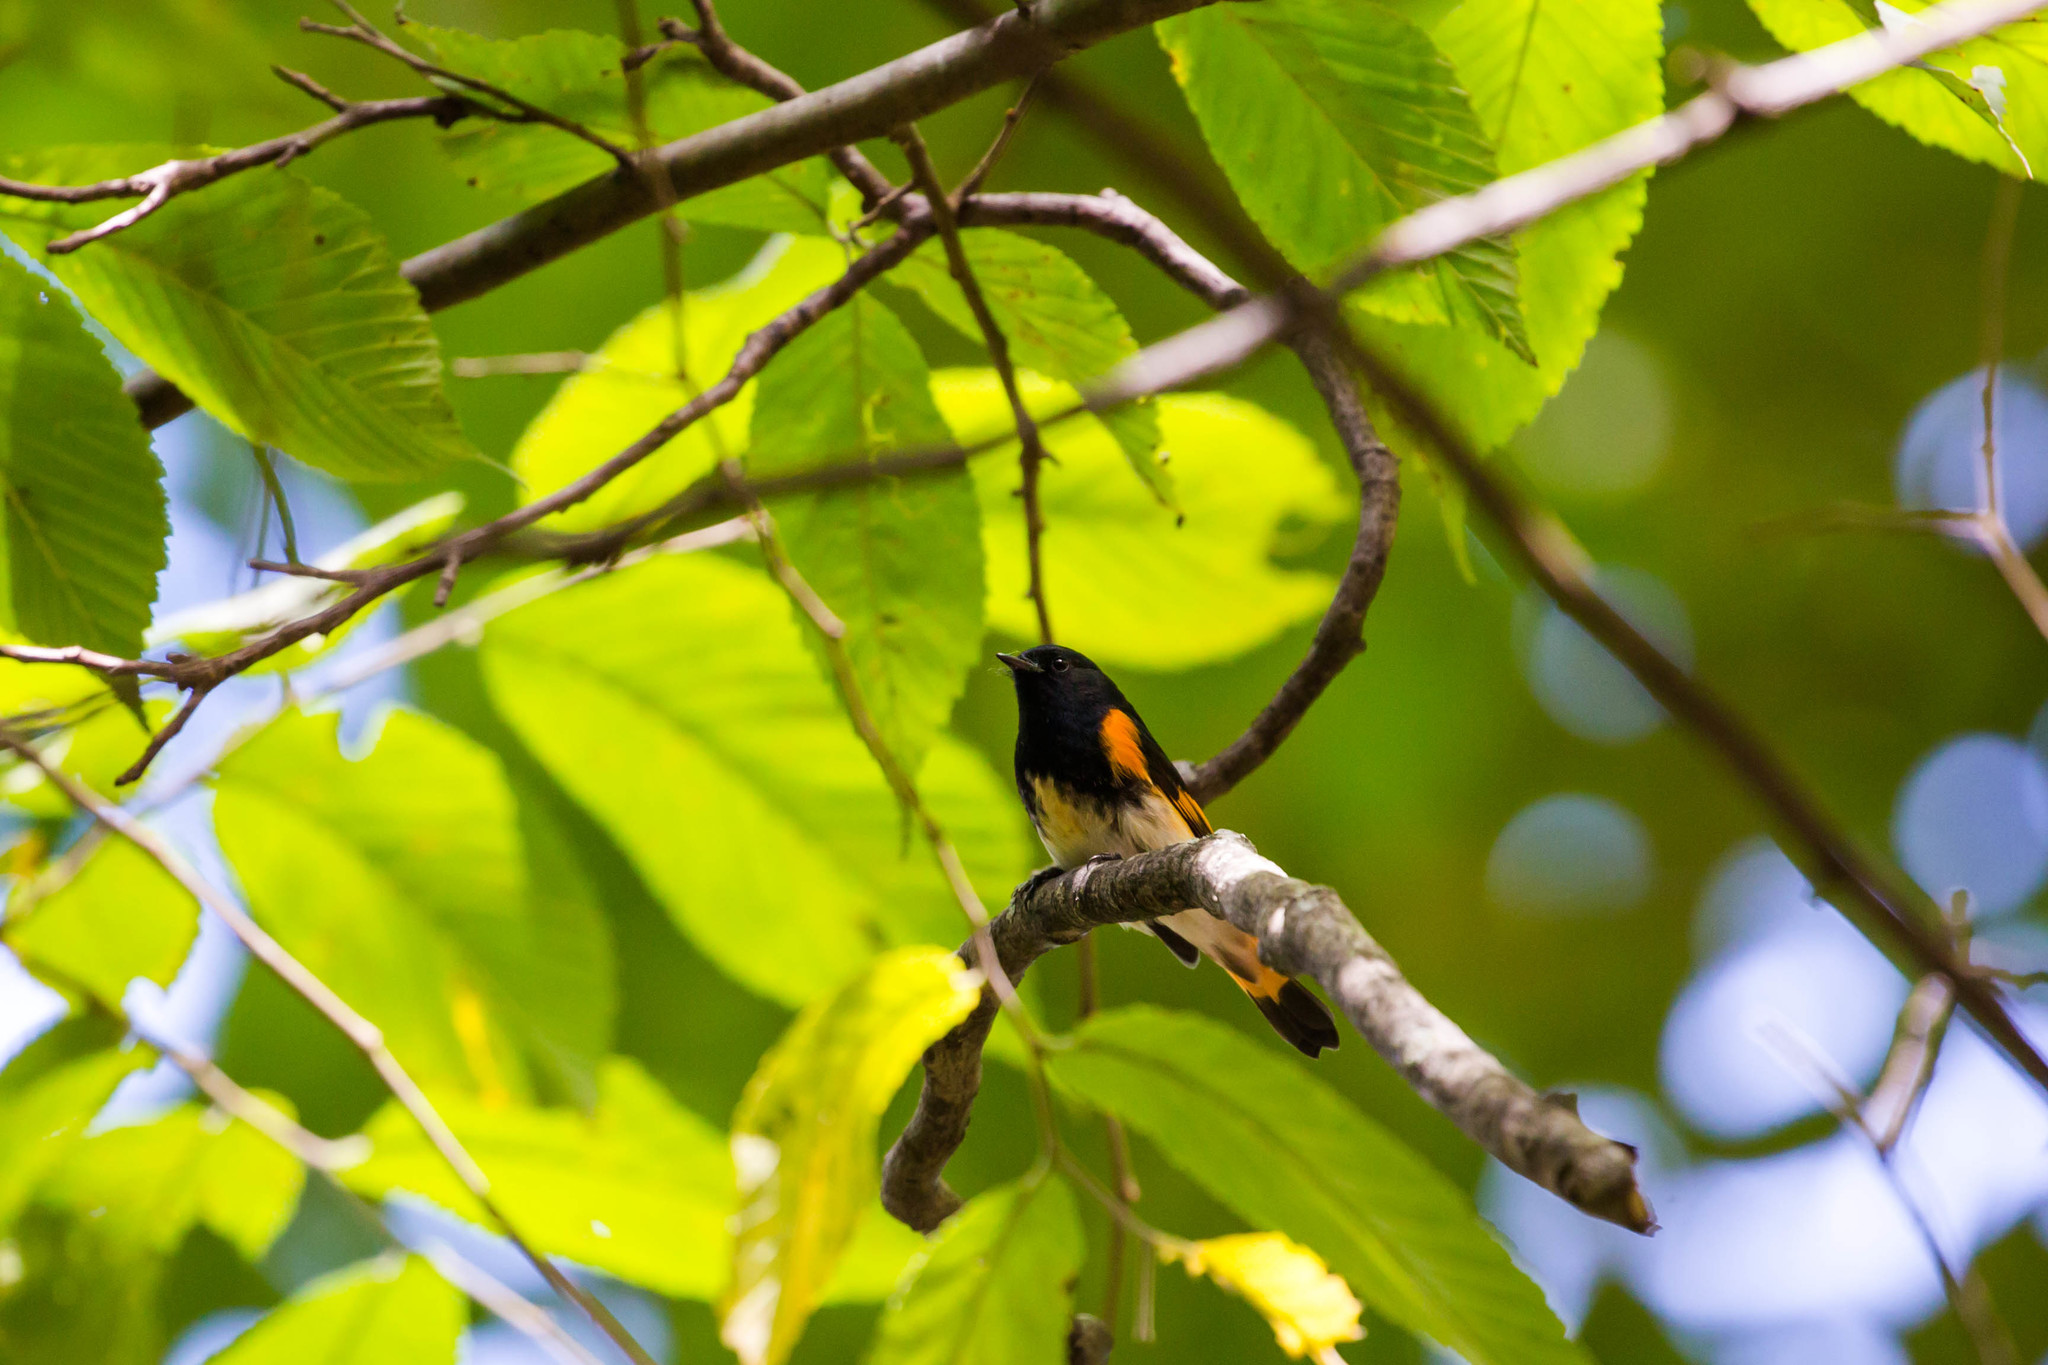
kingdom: Animalia
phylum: Chordata
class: Aves
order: Passeriformes
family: Parulidae
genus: Setophaga
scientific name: Setophaga ruticilla
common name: American redstart
